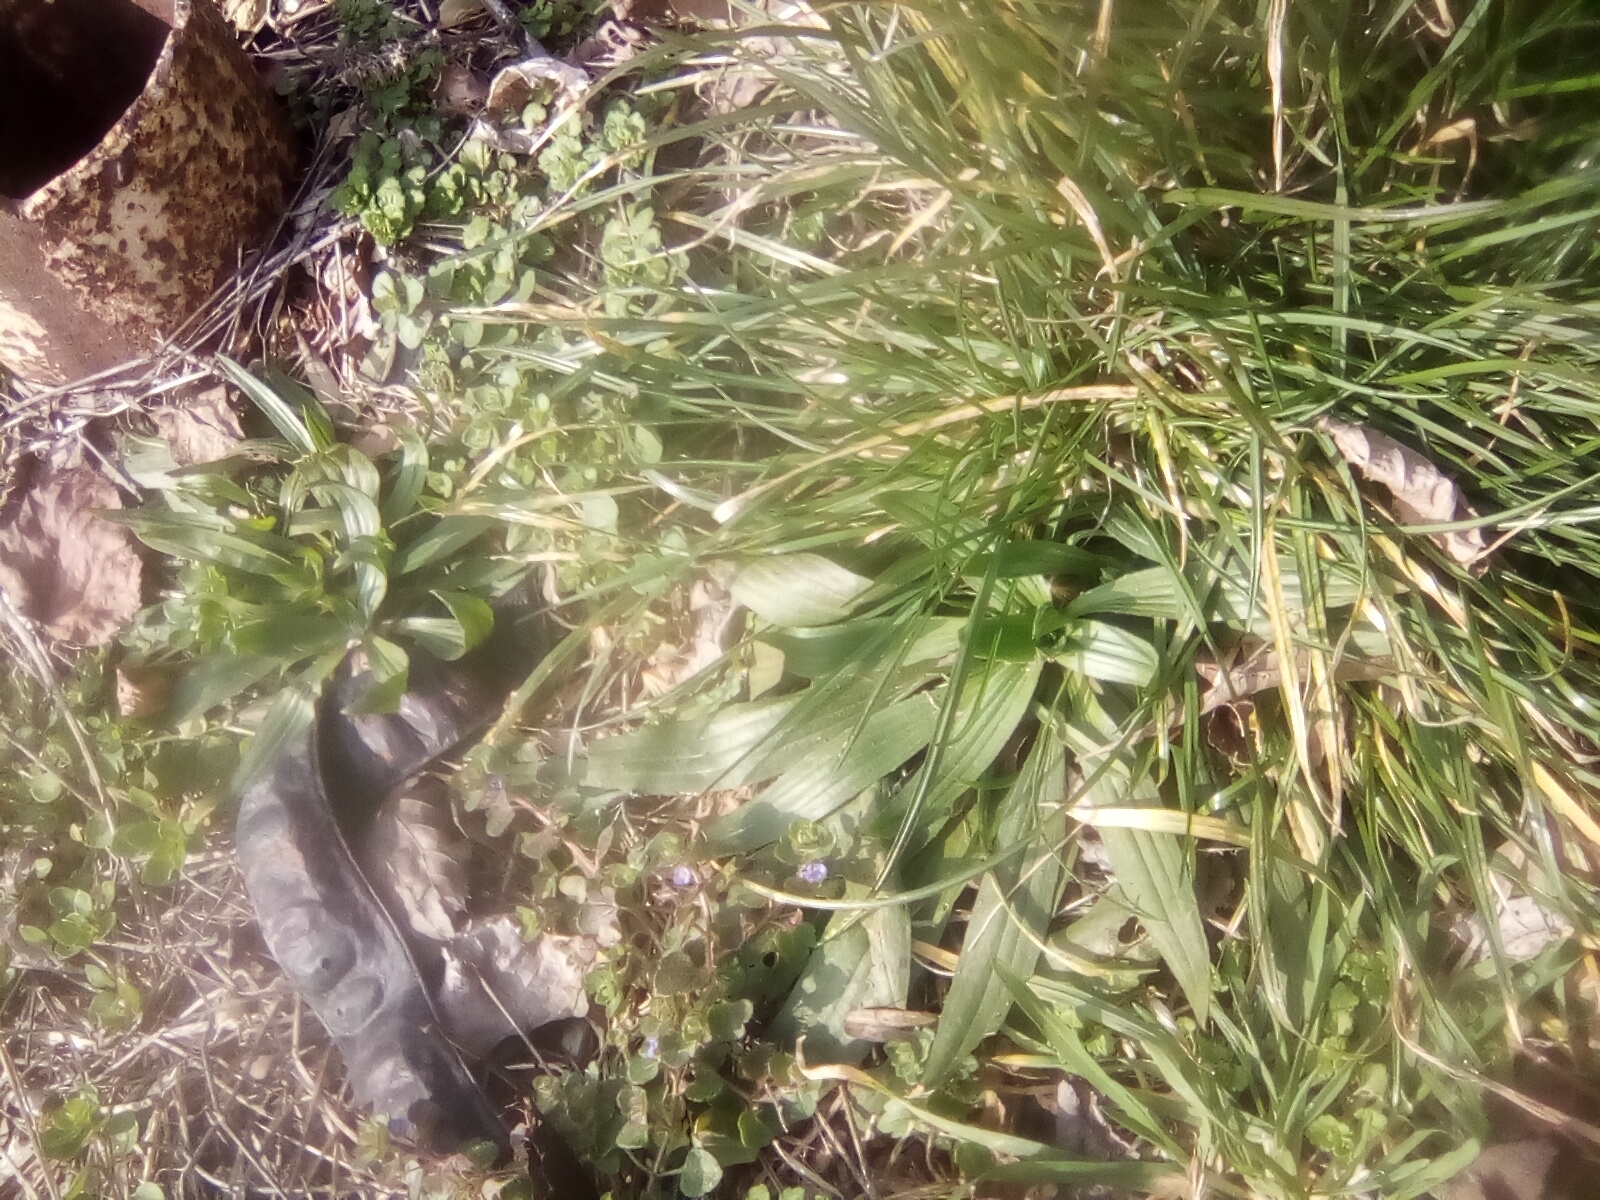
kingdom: Plantae
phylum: Tracheophyta
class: Magnoliopsida
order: Lamiales
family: Plantaginaceae
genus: Plantago
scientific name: Plantago lanceolata
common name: Ribwort plantain
